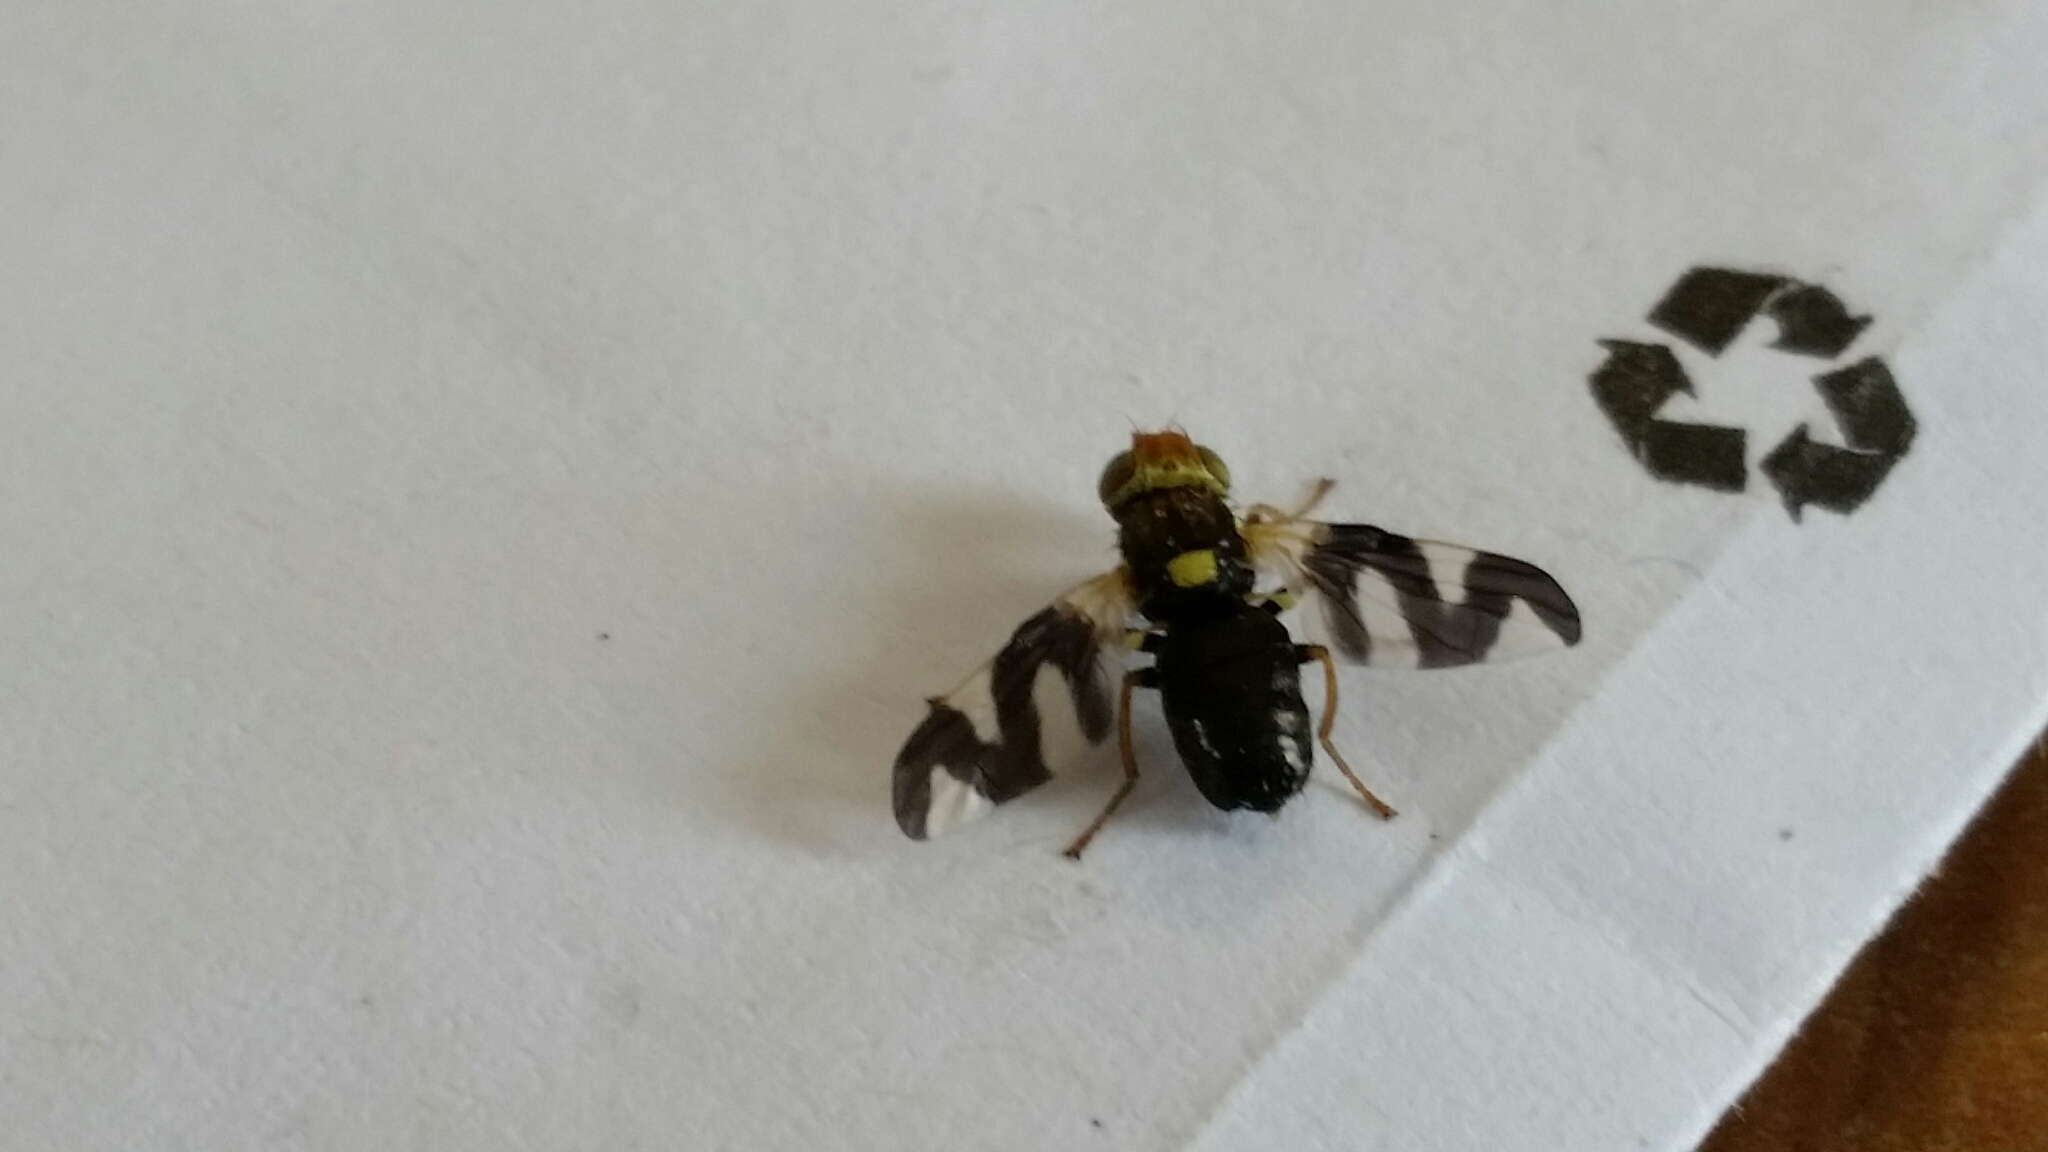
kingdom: Animalia
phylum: Arthropoda
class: Insecta
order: Diptera
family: Tephritidae
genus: Urophora
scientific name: Urophora cardui
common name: Fruit fly
